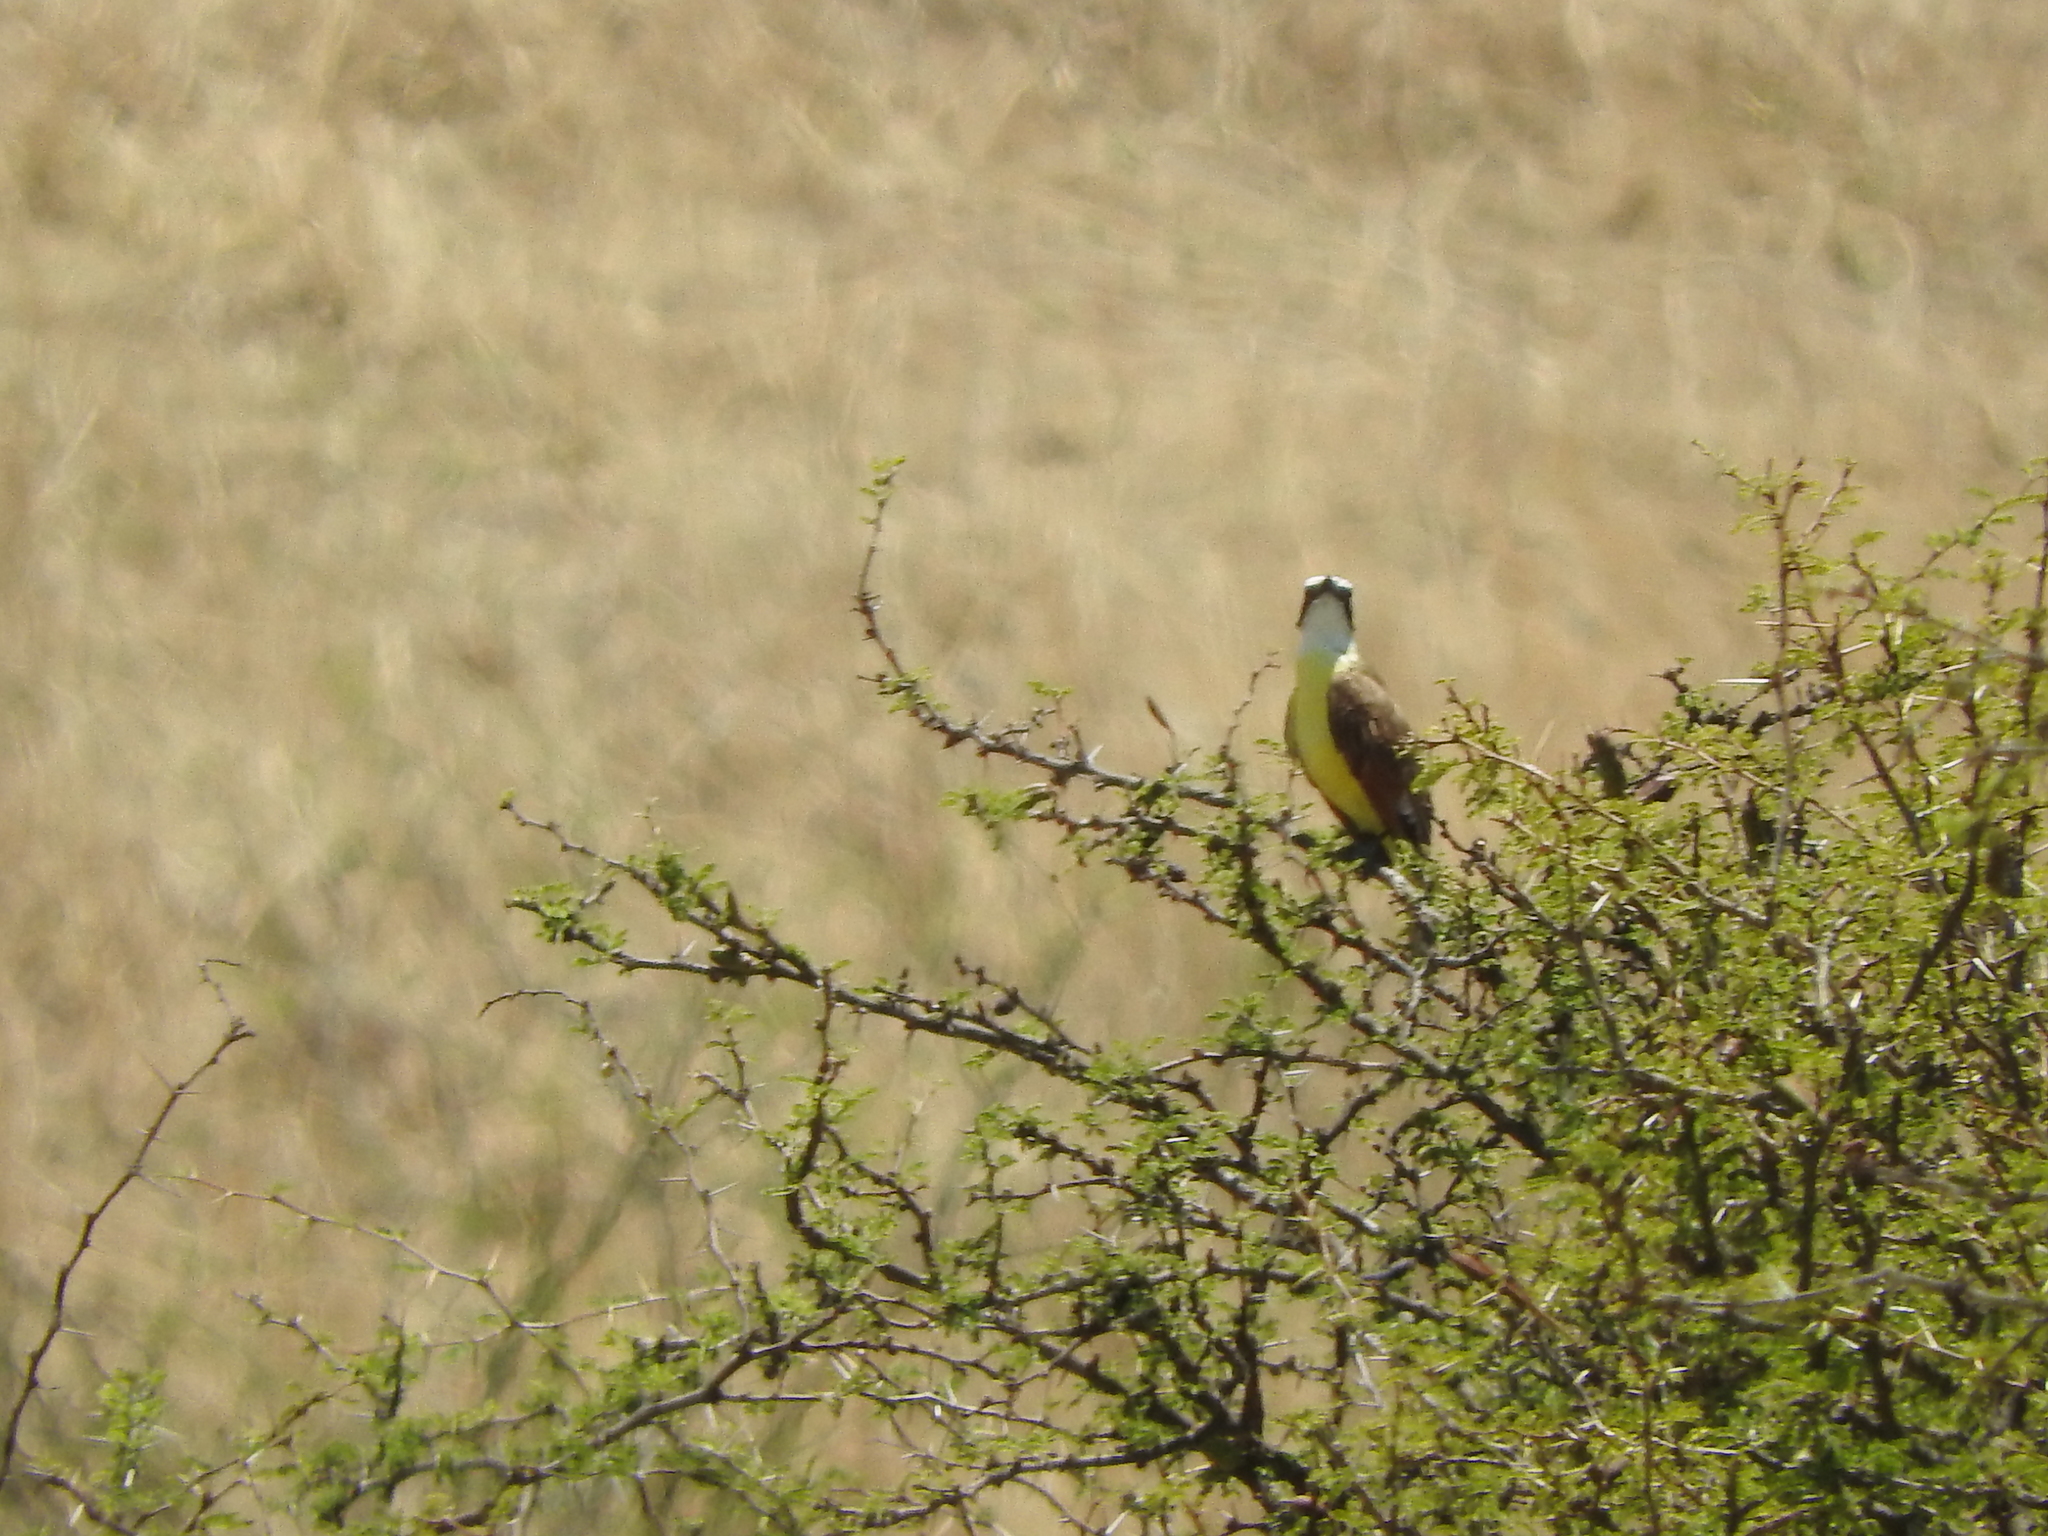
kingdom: Animalia
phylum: Chordata
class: Aves
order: Passeriformes
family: Tyrannidae
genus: Pitangus
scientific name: Pitangus sulphuratus
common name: Great kiskadee
